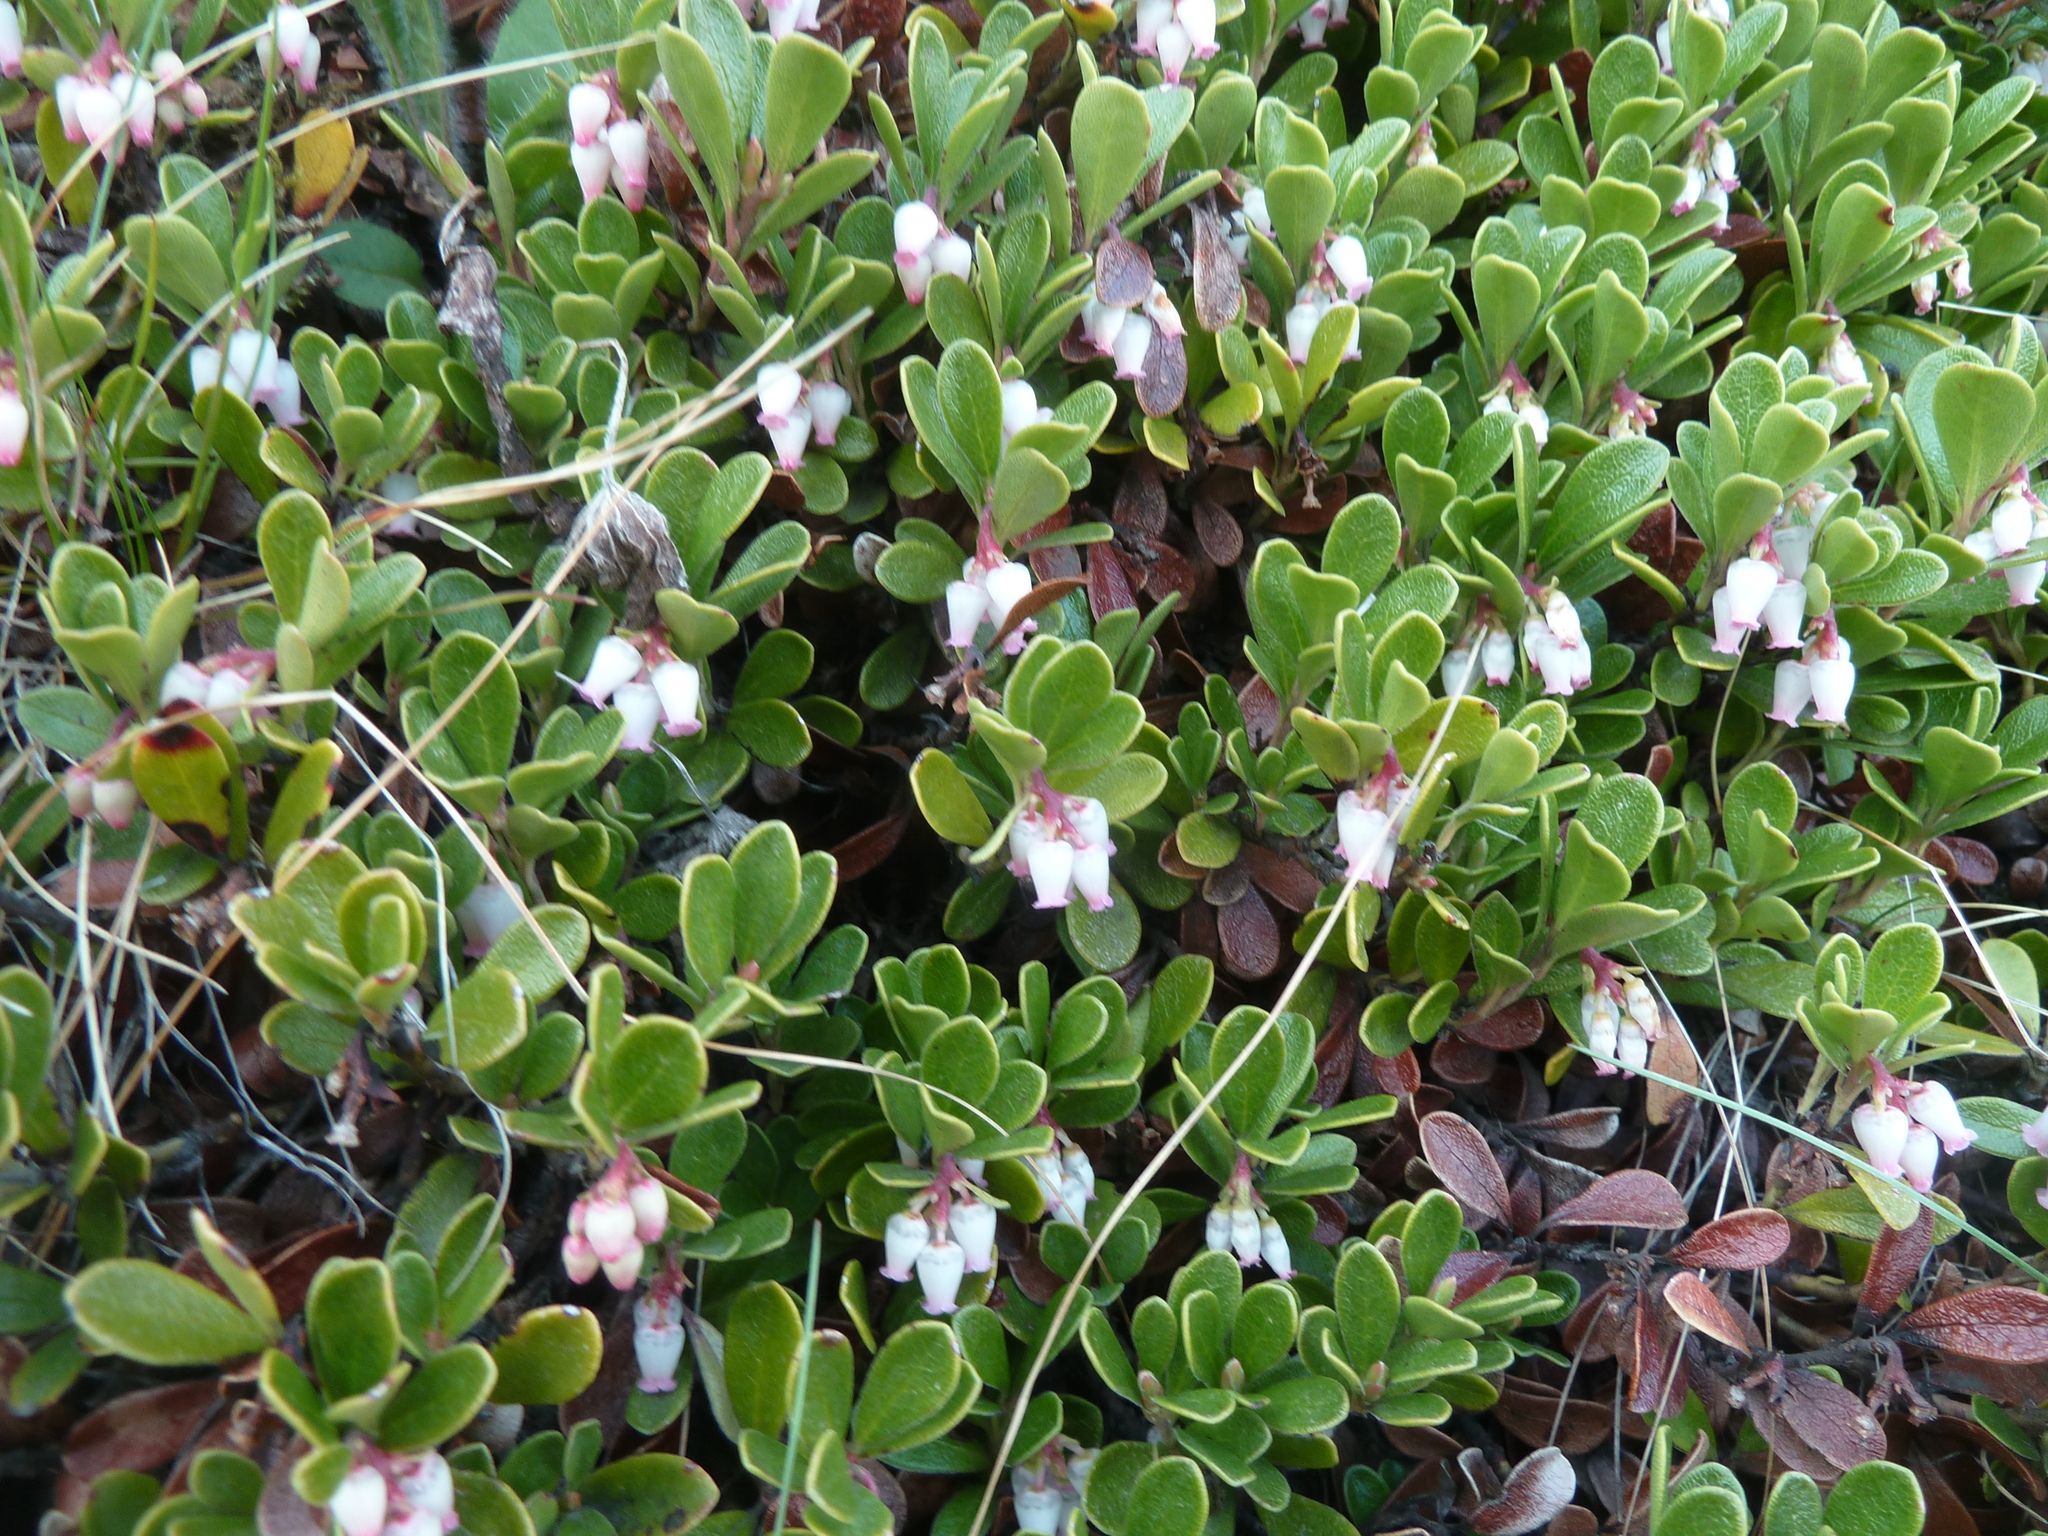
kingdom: Plantae
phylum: Tracheophyta
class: Magnoliopsida
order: Ericales
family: Ericaceae
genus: Arctostaphylos
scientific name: Arctostaphylos uva-ursi
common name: Bearberry
